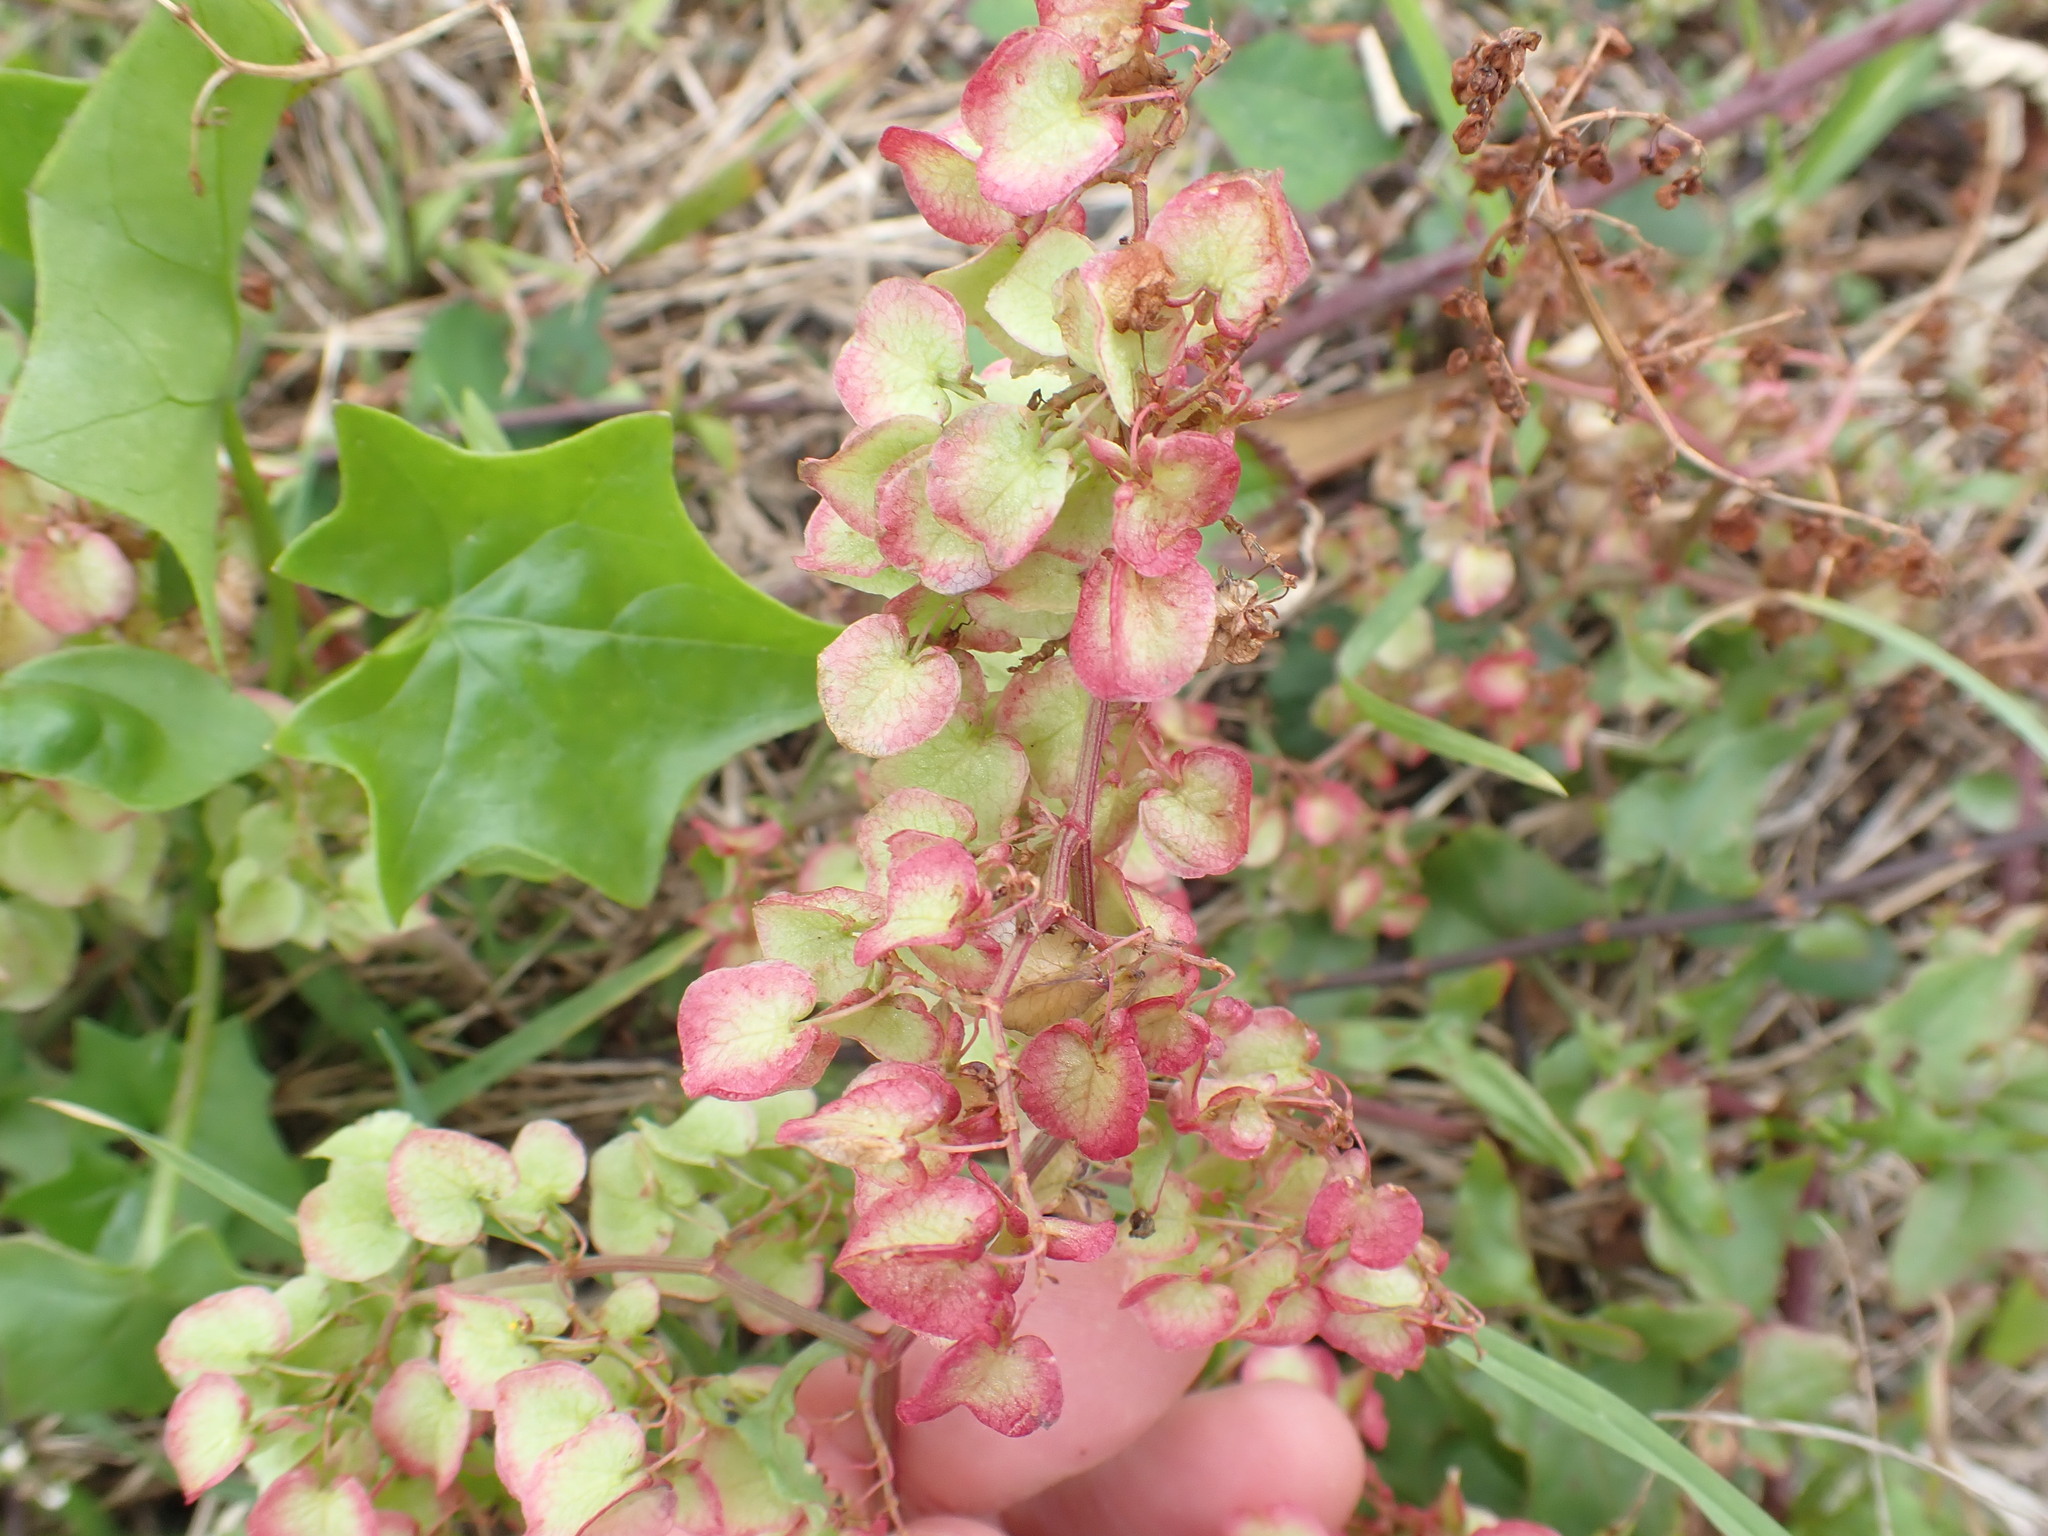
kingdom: Plantae
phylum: Tracheophyta
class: Magnoliopsida
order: Caryophyllales
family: Polygonaceae
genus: Rumex
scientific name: Rumex sagittatus
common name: Climbing dock
